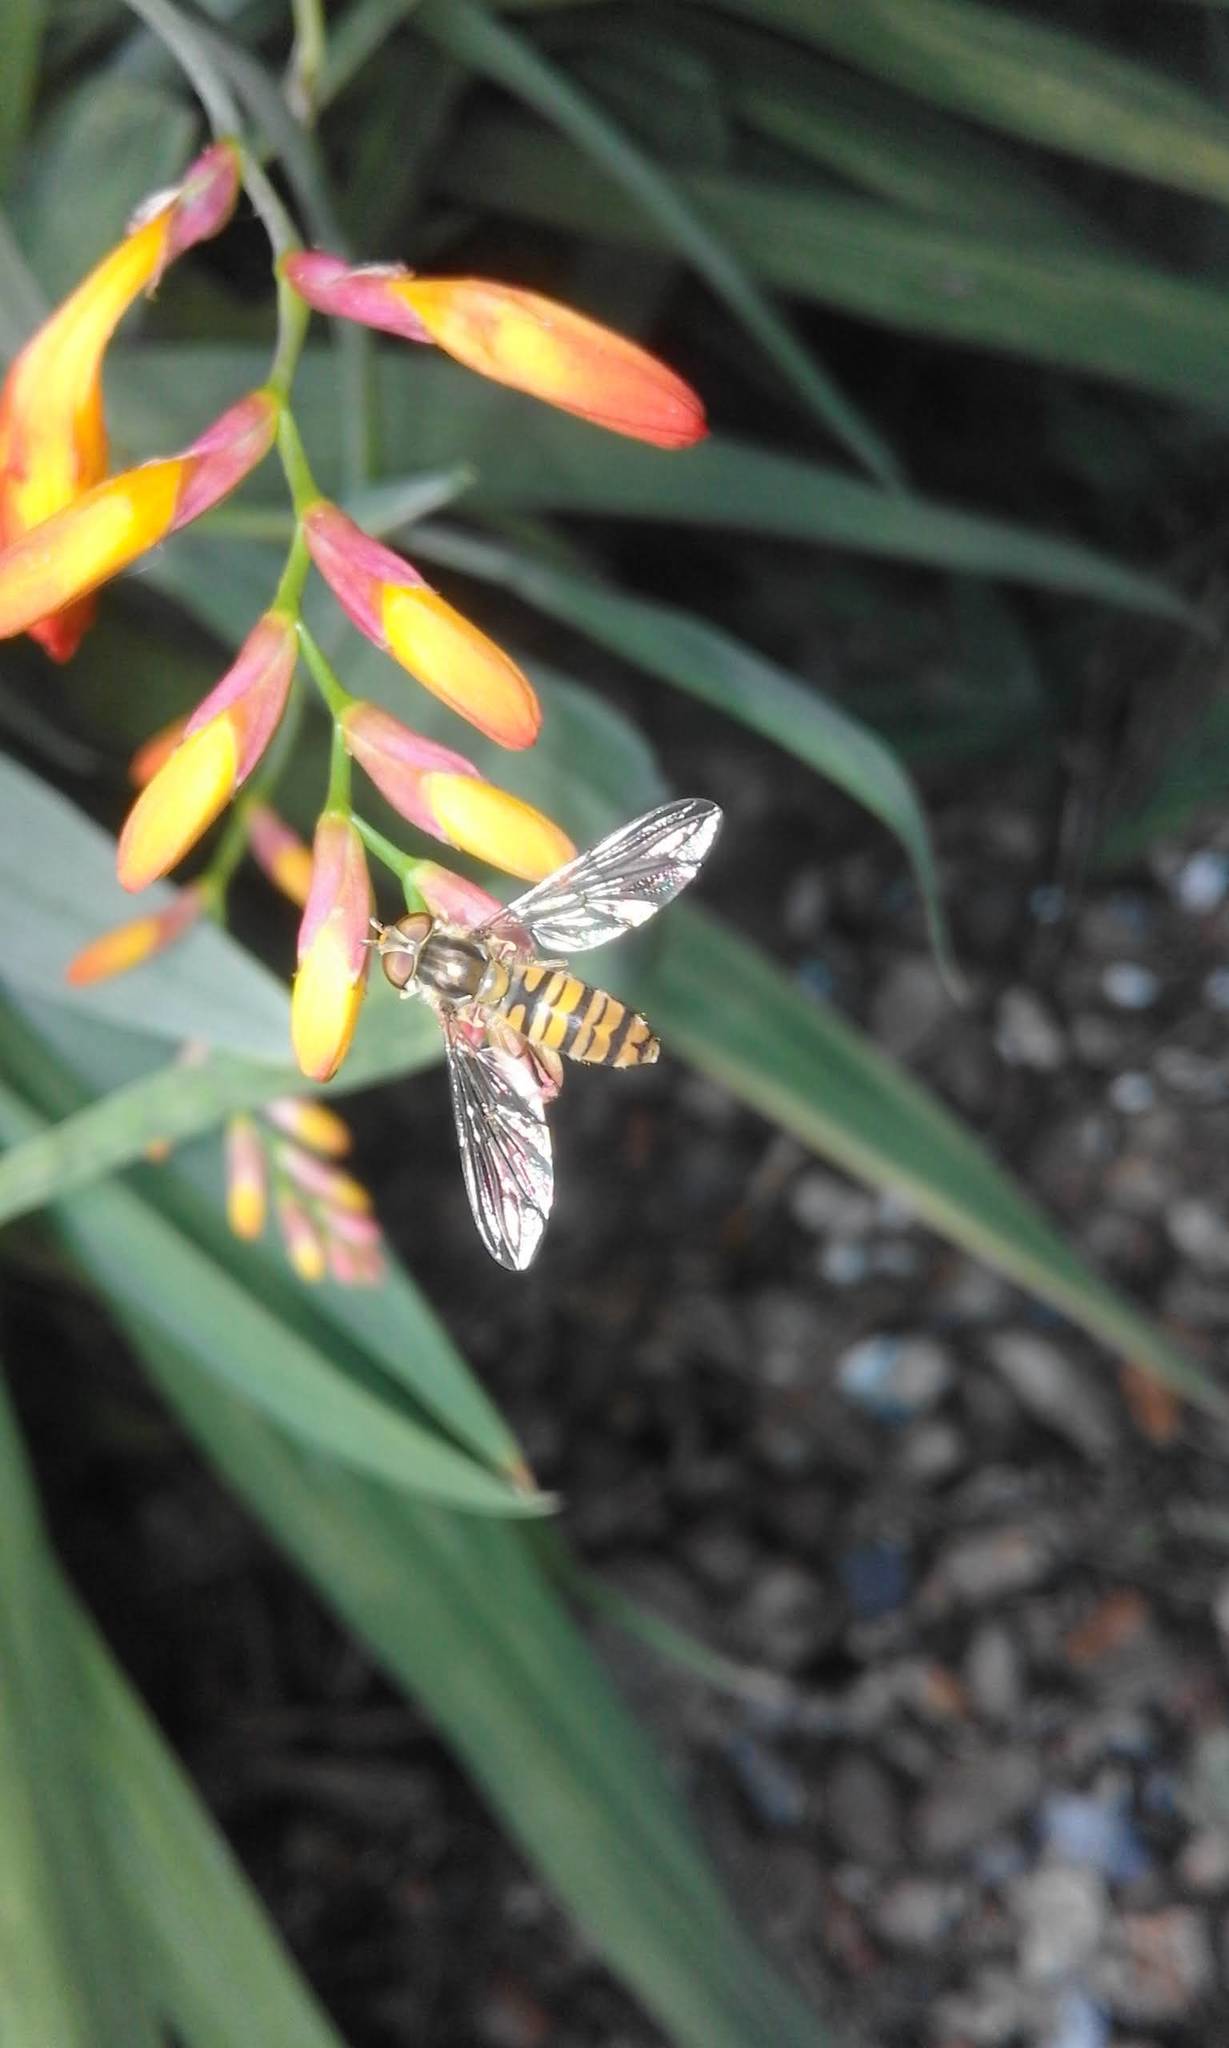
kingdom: Animalia
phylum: Arthropoda
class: Insecta
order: Diptera
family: Syrphidae
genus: Episyrphus
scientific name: Episyrphus balteatus
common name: Marmalade hoverfly
